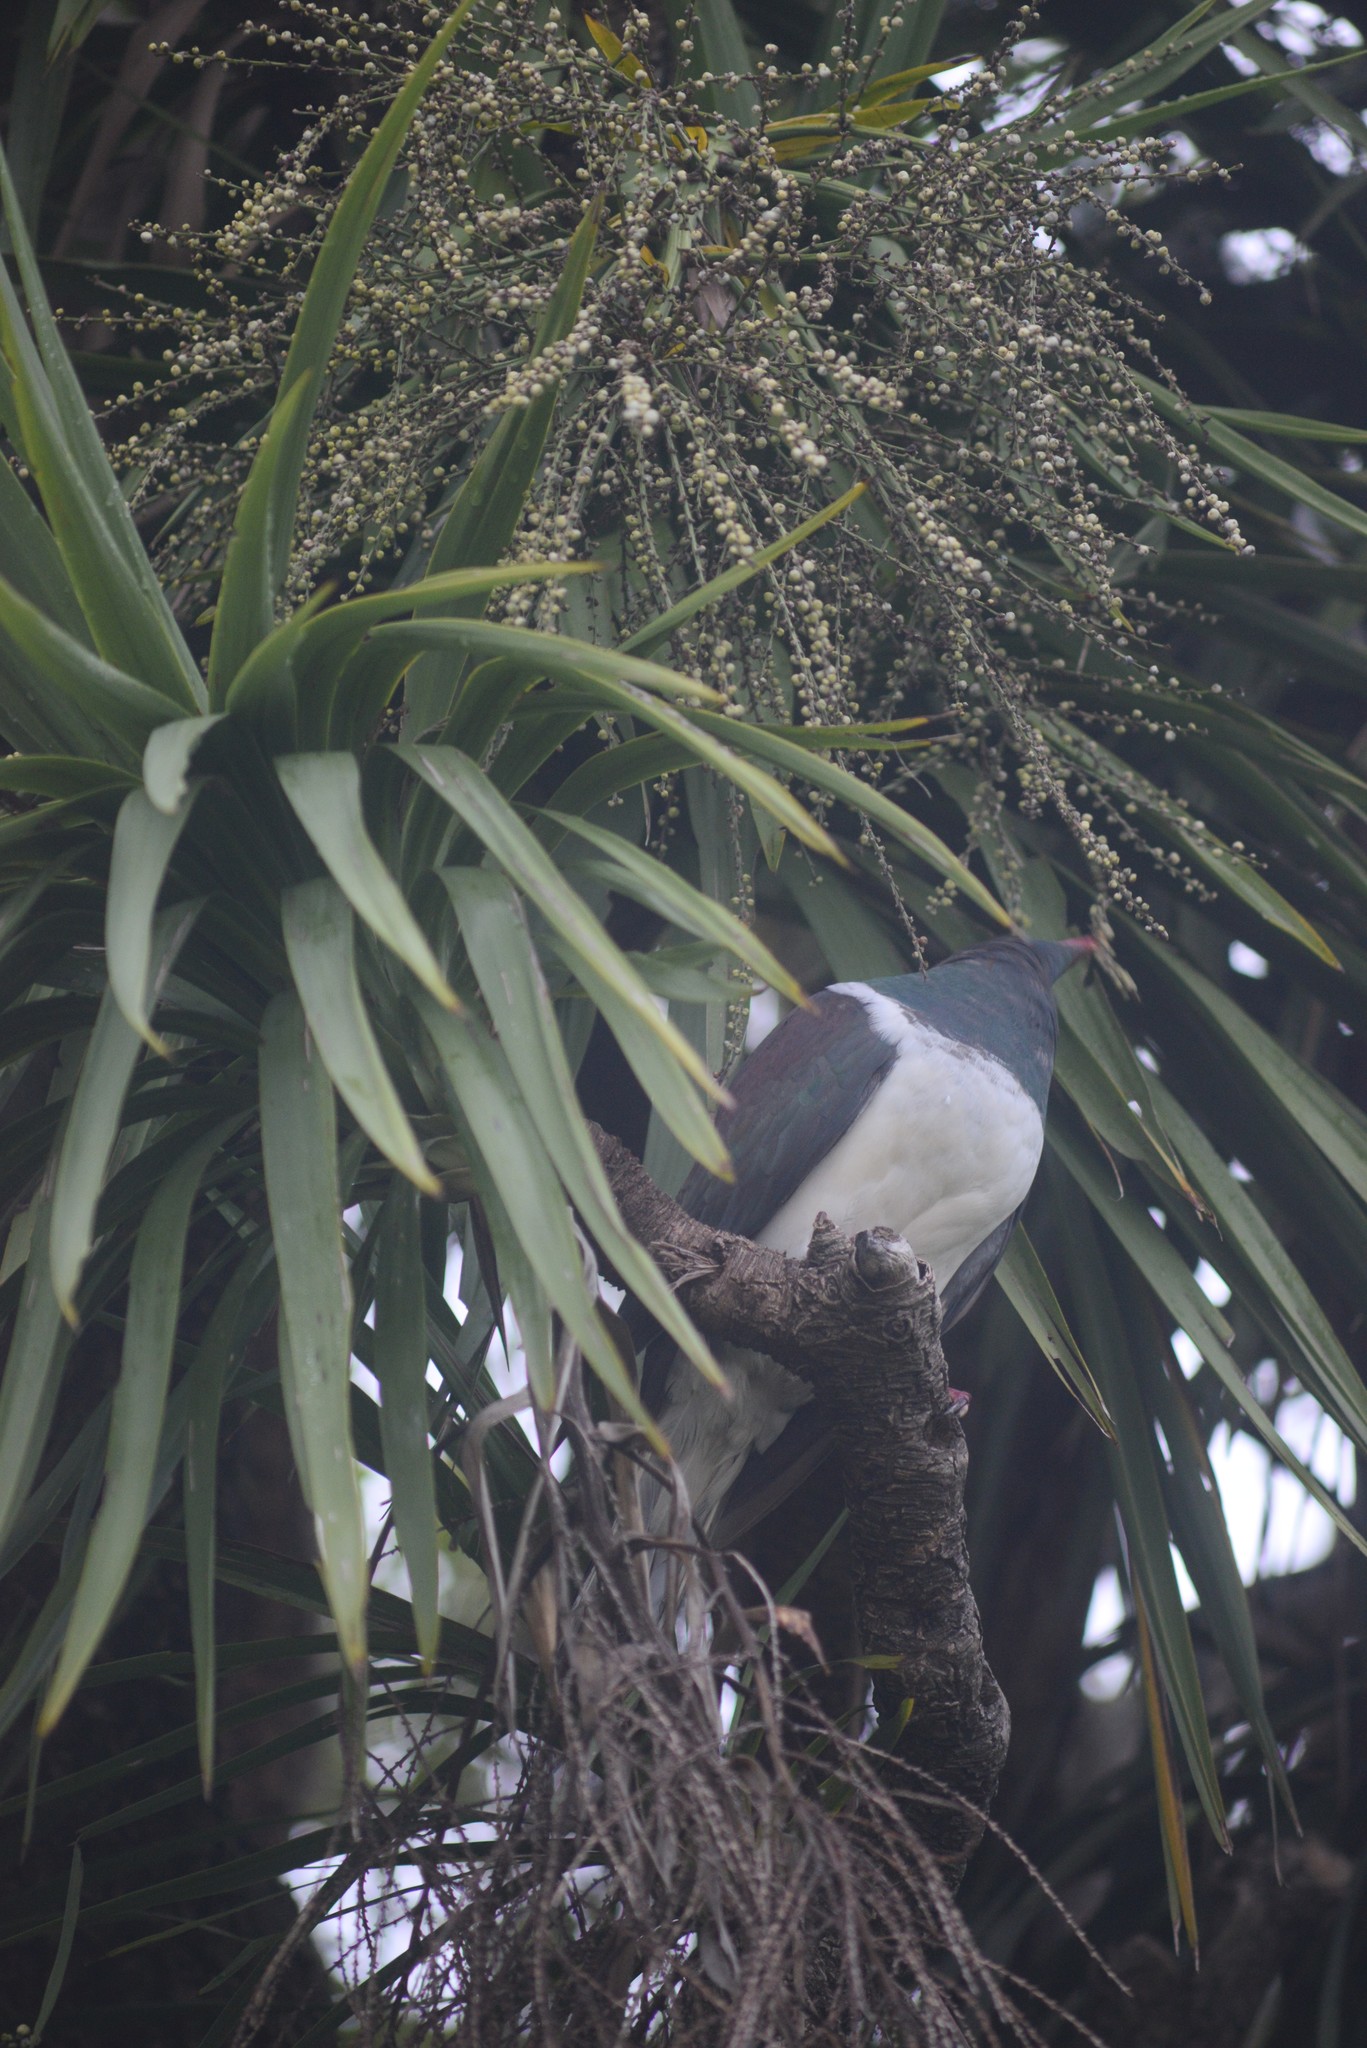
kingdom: Animalia
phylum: Chordata
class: Aves
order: Columbiformes
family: Columbidae
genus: Hemiphaga
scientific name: Hemiphaga novaeseelandiae
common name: New zealand pigeon
